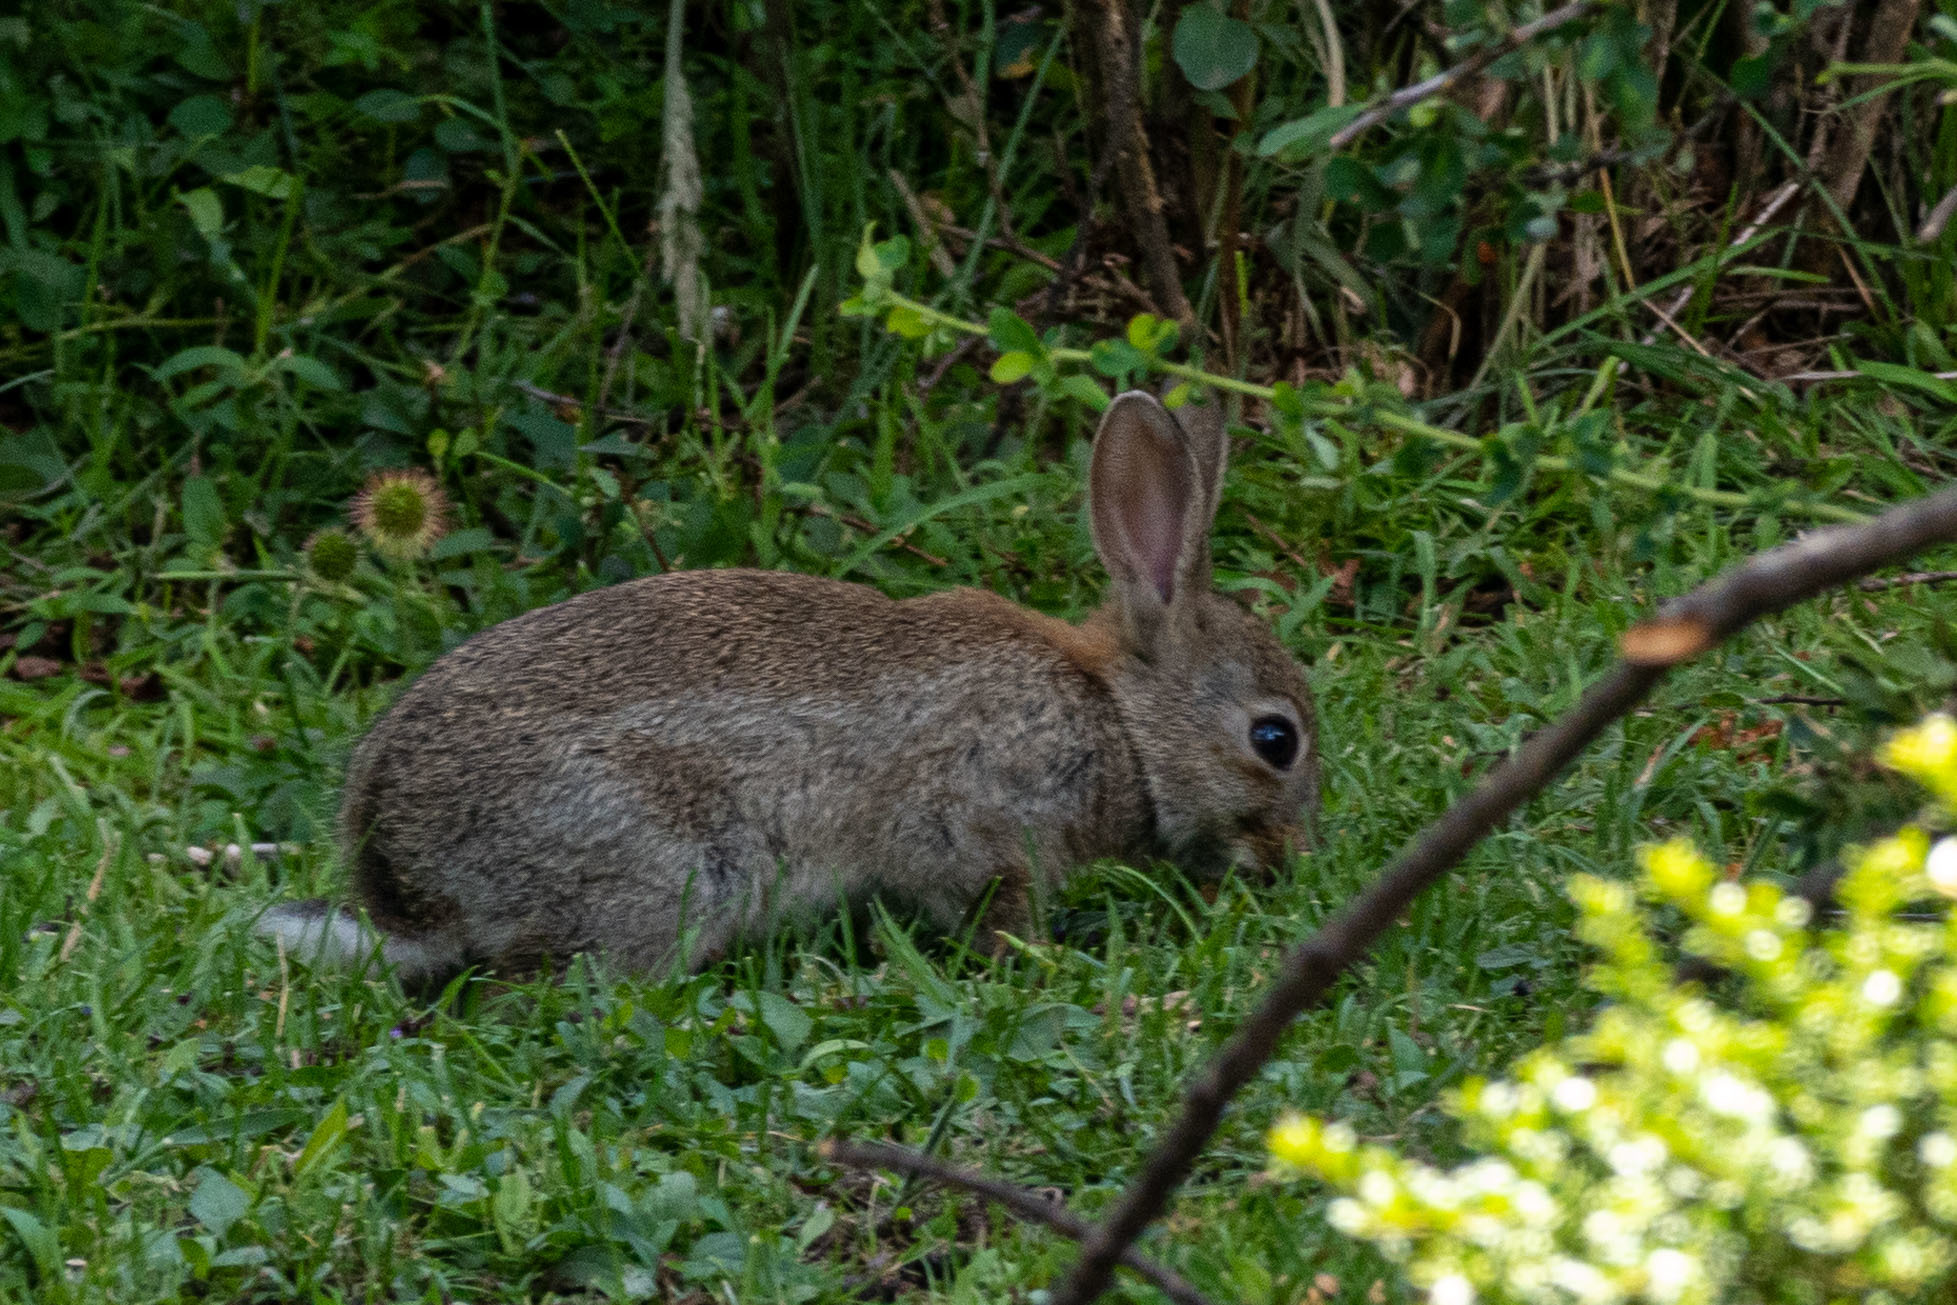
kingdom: Animalia
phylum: Chordata
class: Mammalia
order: Lagomorpha
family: Leporidae
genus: Oryctolagus
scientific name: Oryctolagus cuniculus
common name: European rabbit
